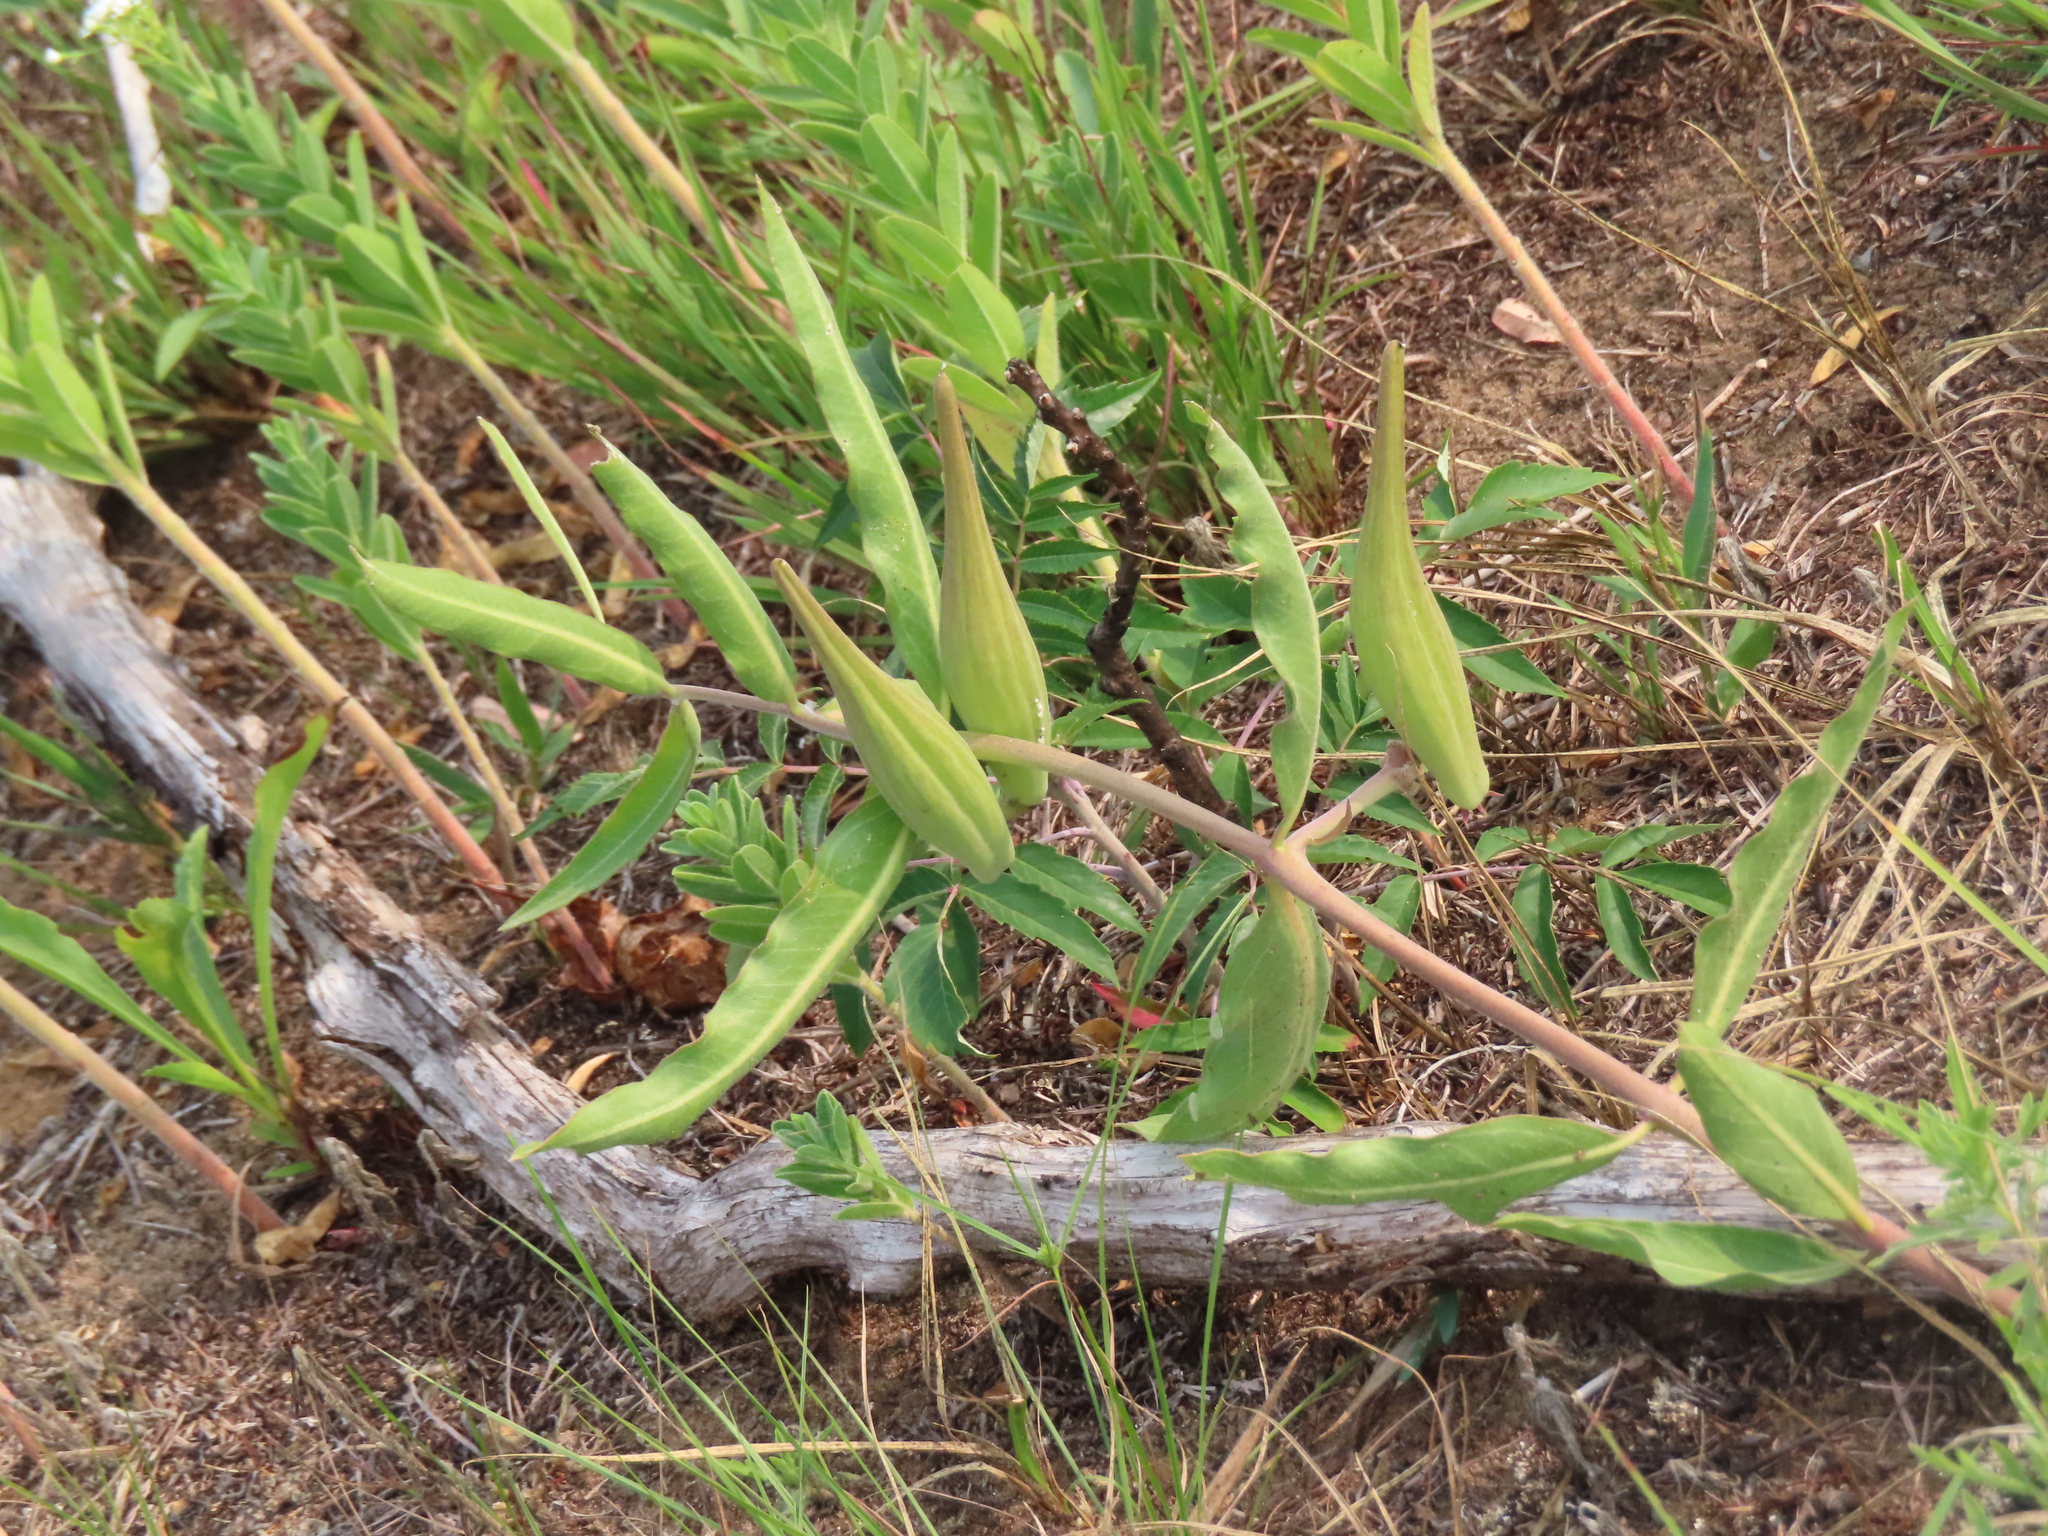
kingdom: Plantae
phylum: Tracheophyta
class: Magnoliopsida
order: Gentianales
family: Apocynaceae
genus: Asclepias
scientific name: Asclepias viridiflora
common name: Green comet milkweed
